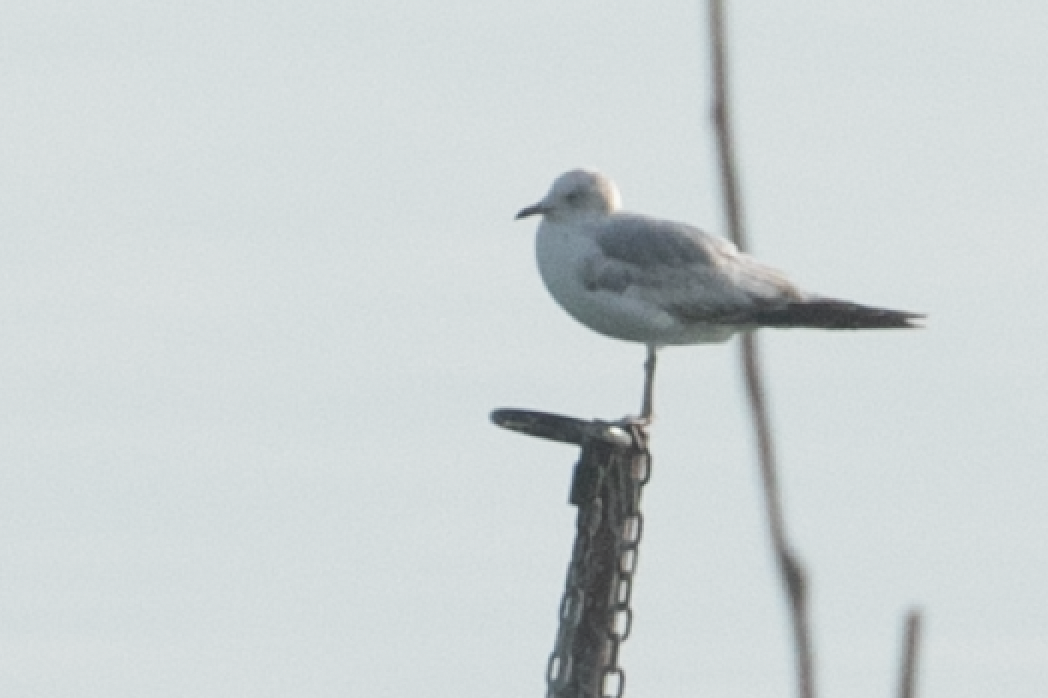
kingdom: Animalia
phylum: Chordata
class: Aves
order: Charadriiformes
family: Laridae
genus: Larus
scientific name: Larus canus
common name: Mew gull
